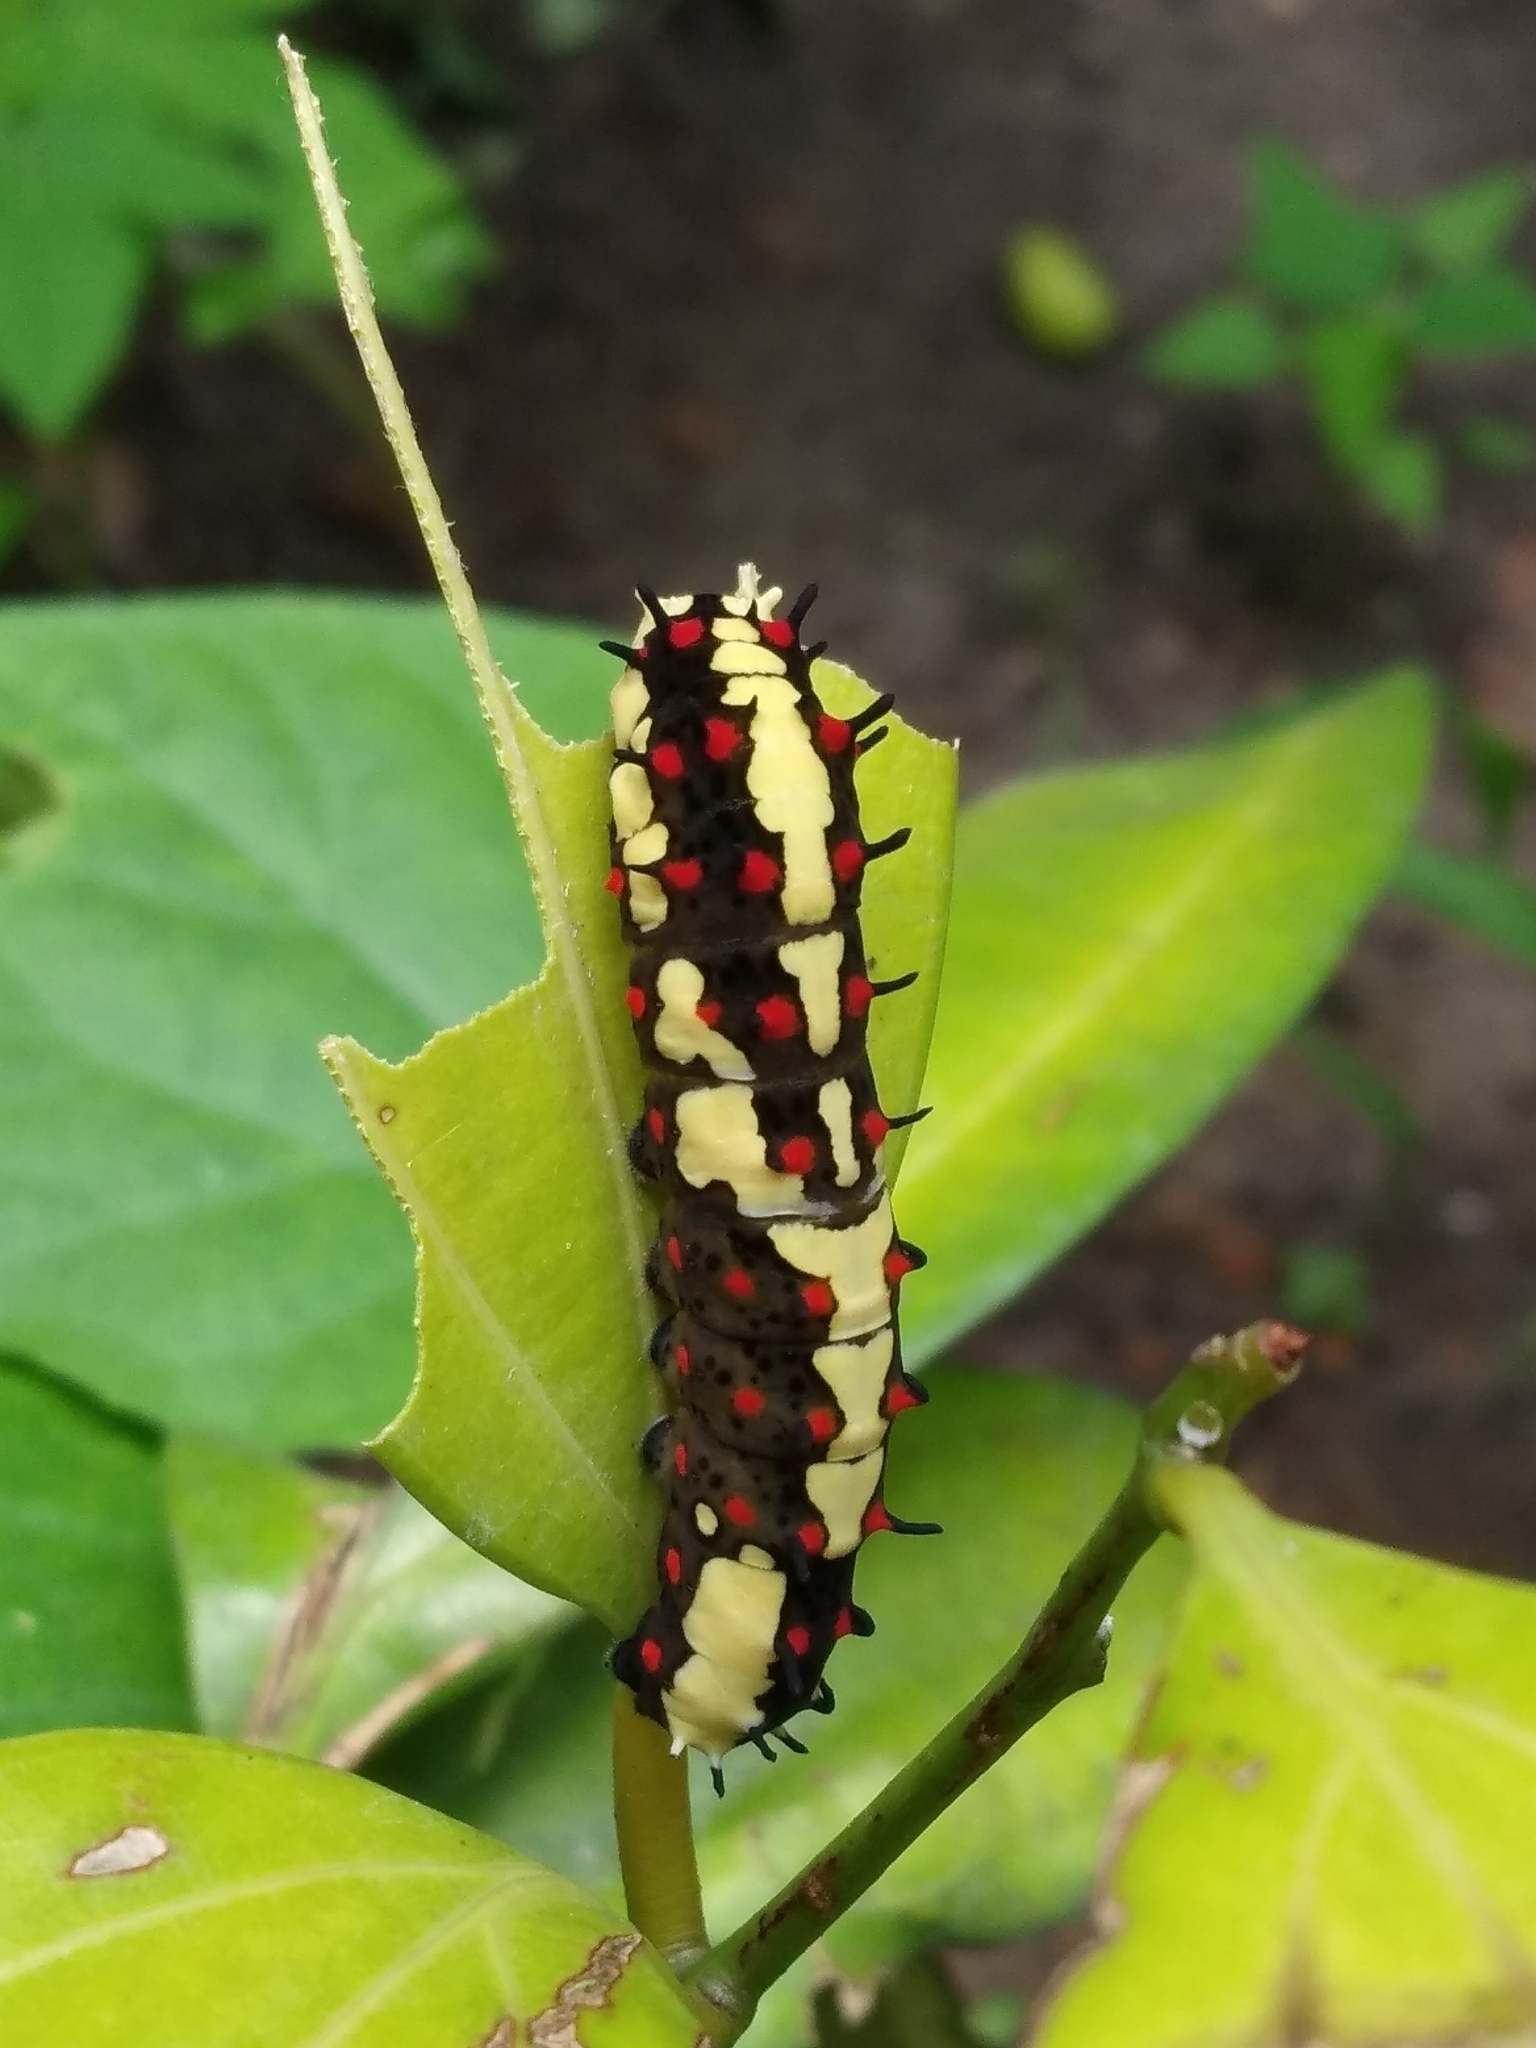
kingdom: Animalia
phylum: Arthropoda
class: Insecta
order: Lepidoptera
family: Papilionidae
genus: Chilasa
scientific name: Chilasa clytia
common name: Common mime
